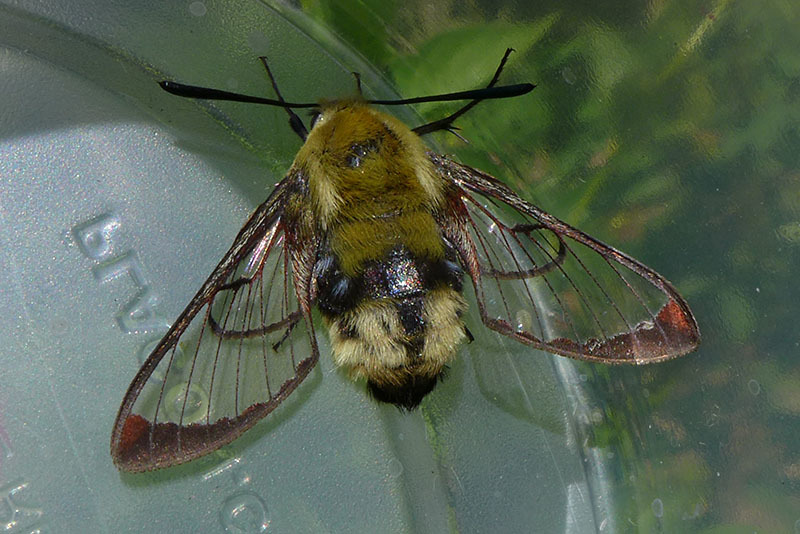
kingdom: Animalia
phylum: Arthropoda
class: Insecta
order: Lepidoptera
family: Sphingidae
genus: Hemaris
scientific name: Hemaris thetis
